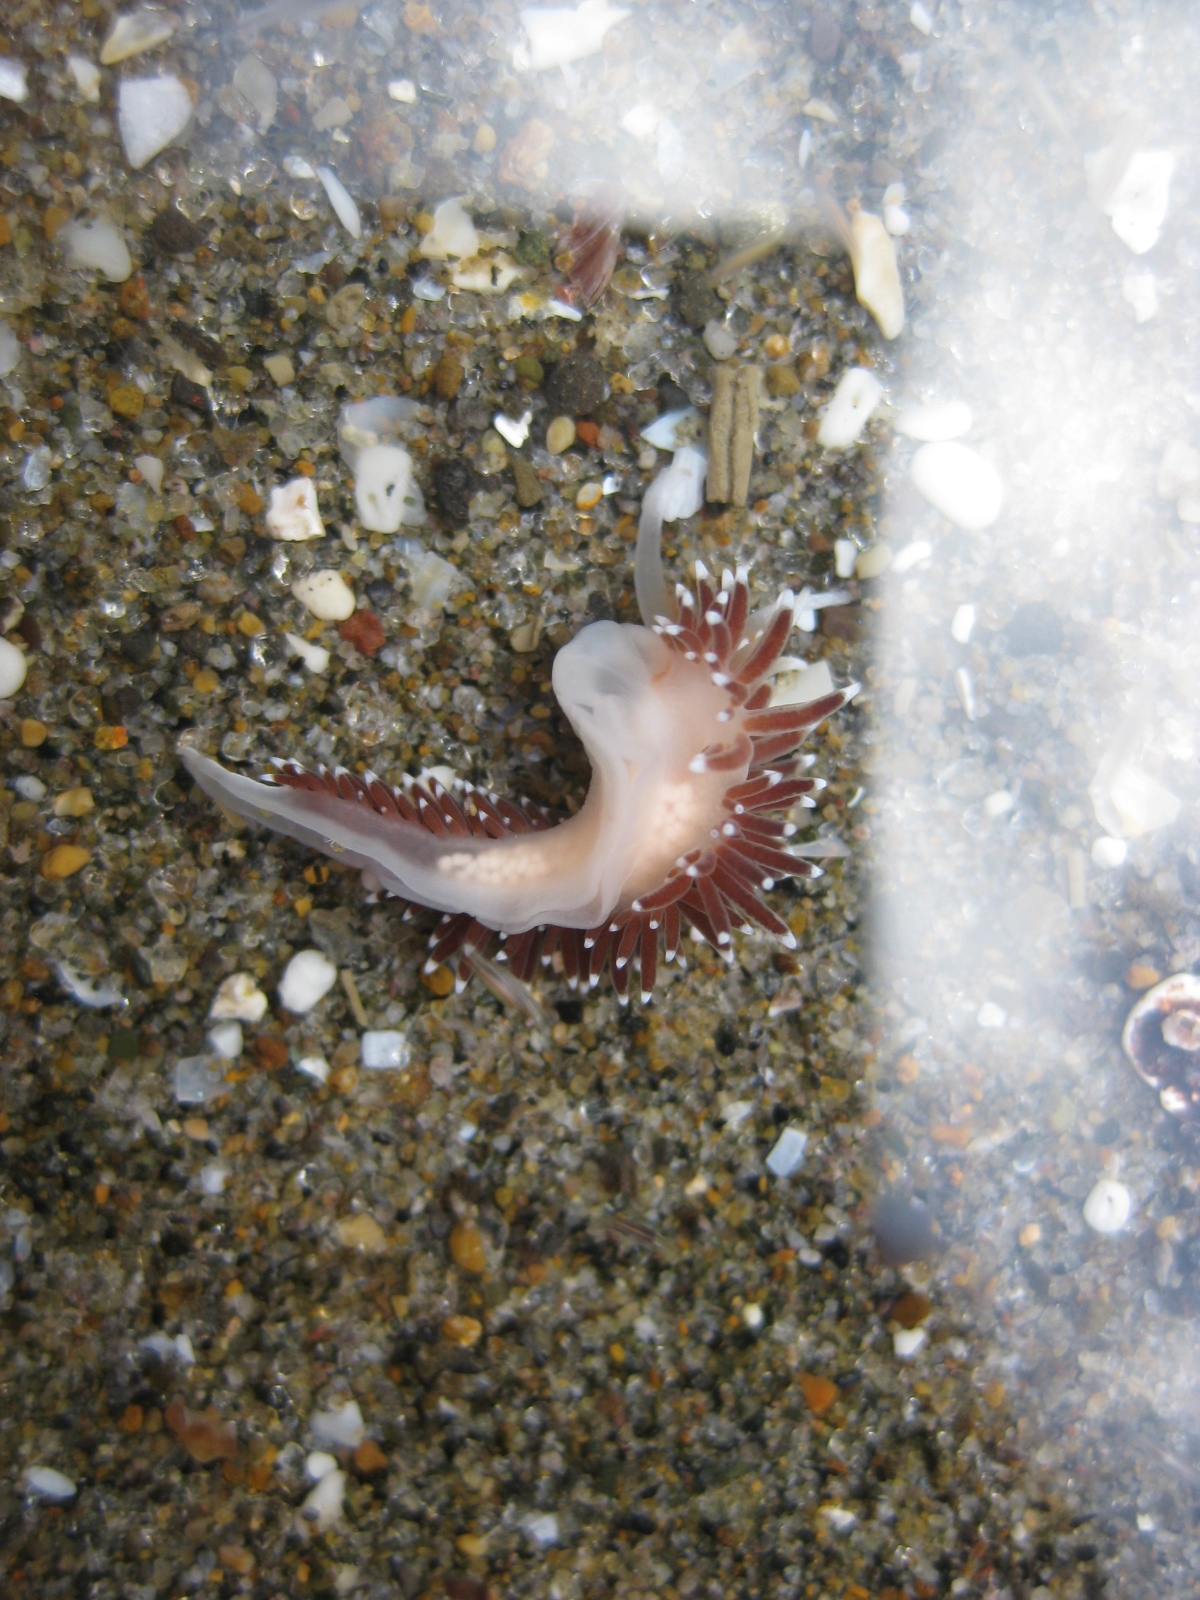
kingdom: Animalia
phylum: Mollusca
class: Gastropoda
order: Nudibranchia
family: Facelinidae
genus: Phidiana
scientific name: Phidiana milleri
